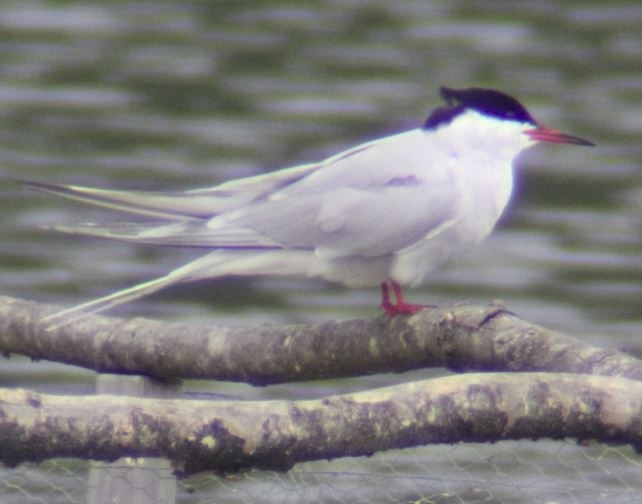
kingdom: Animalia
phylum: Chordata
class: Aves
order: Charadriiformes
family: Laridae
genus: Sterna
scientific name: Sterna hirundo
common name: Common tern
